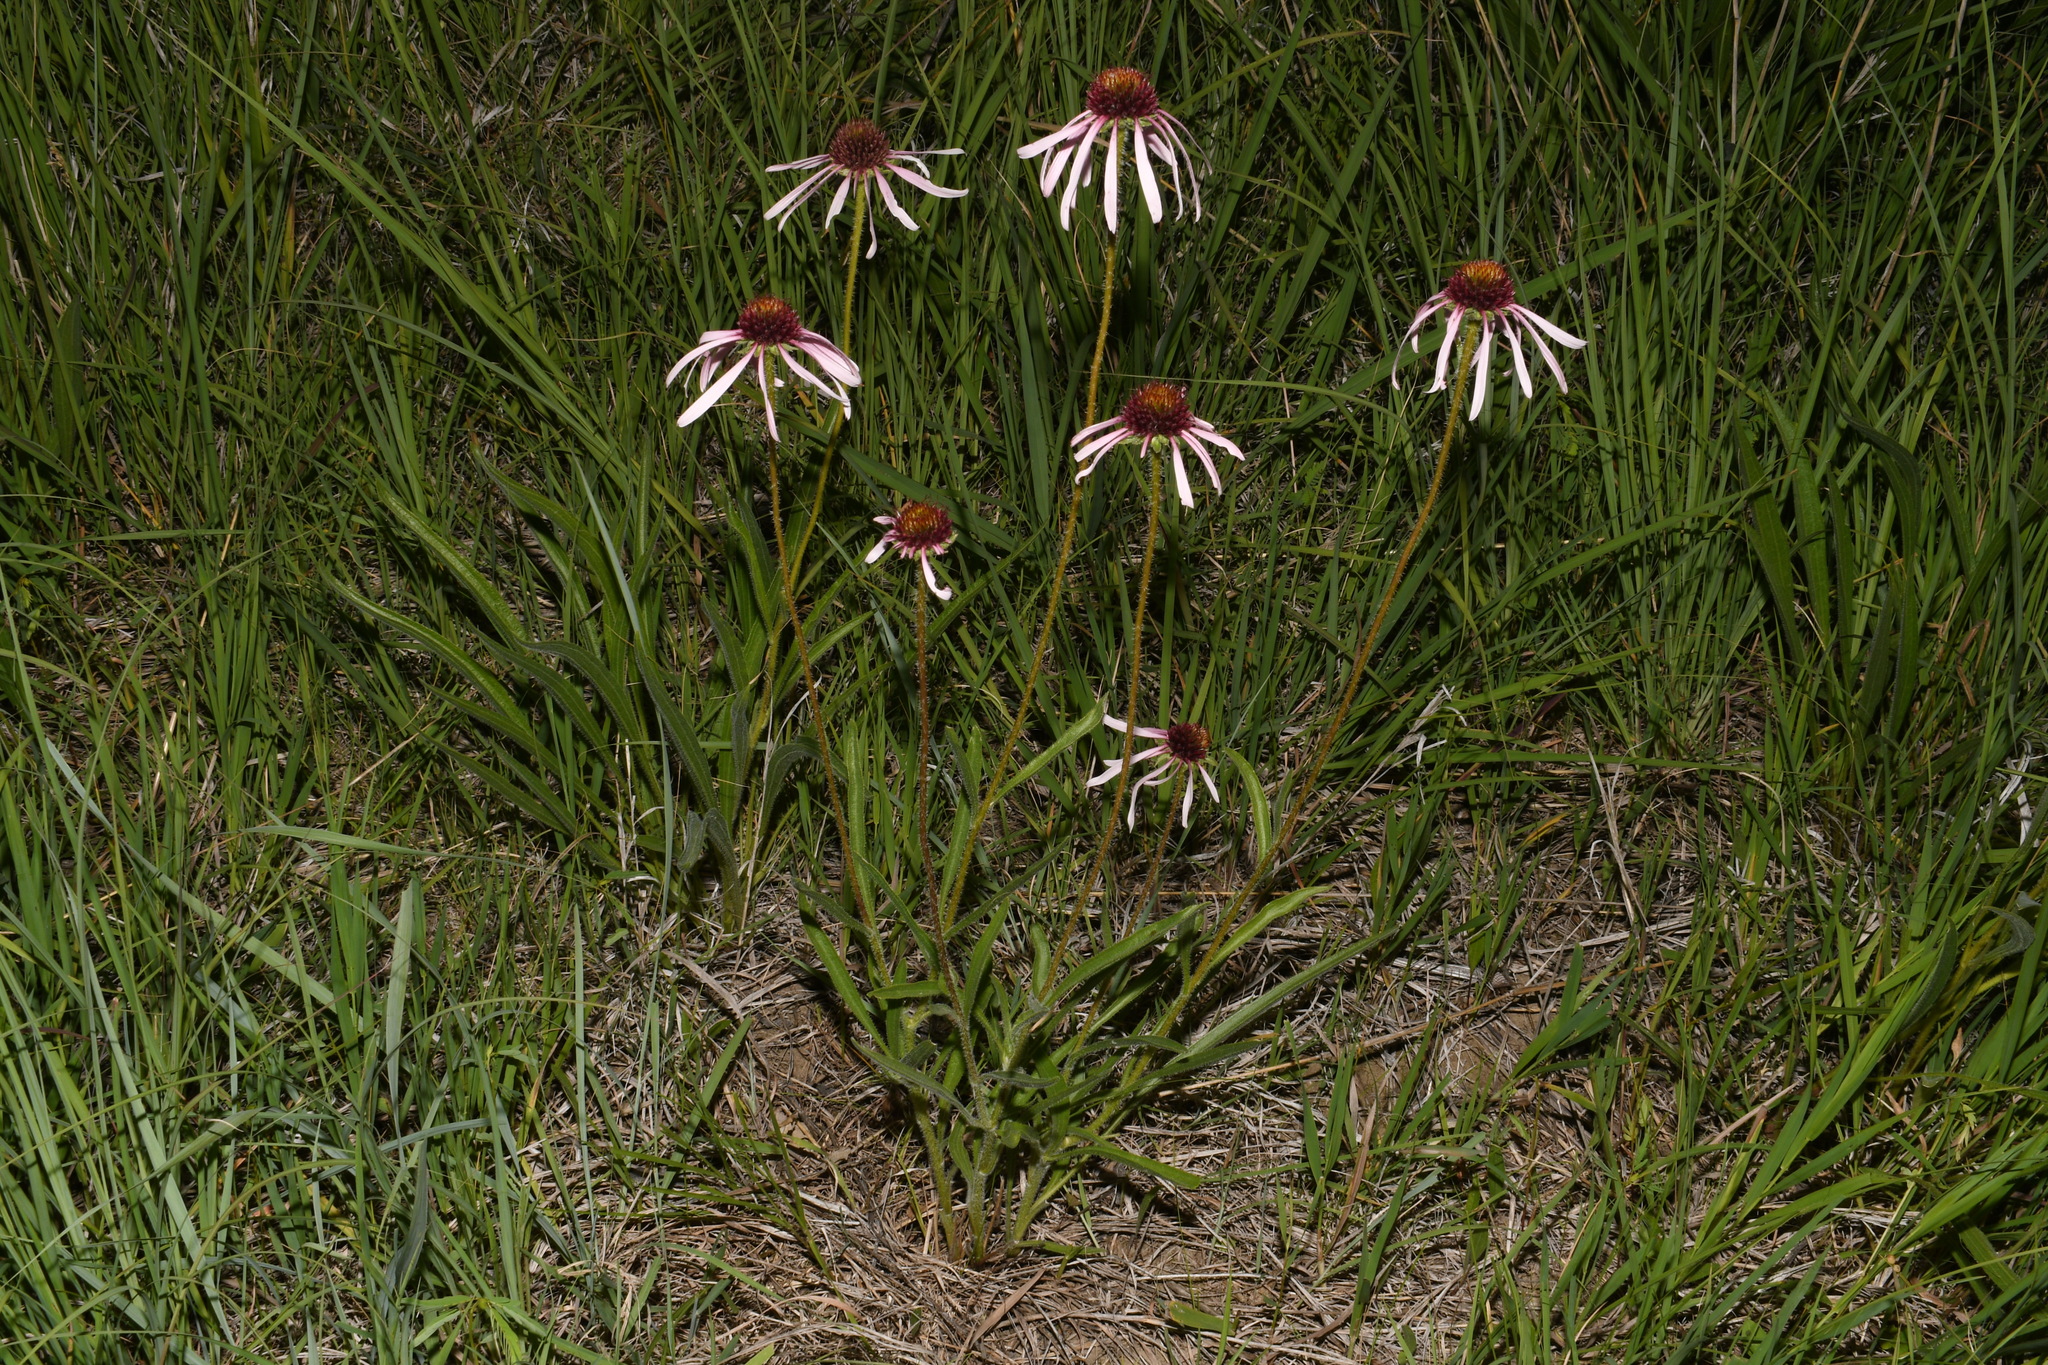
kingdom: Plantae
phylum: Tracheophyta
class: Magnoliopsida
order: Asterales
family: Asteraceae
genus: Echinacea
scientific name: Echinacea pallida
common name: Pale echinacea
